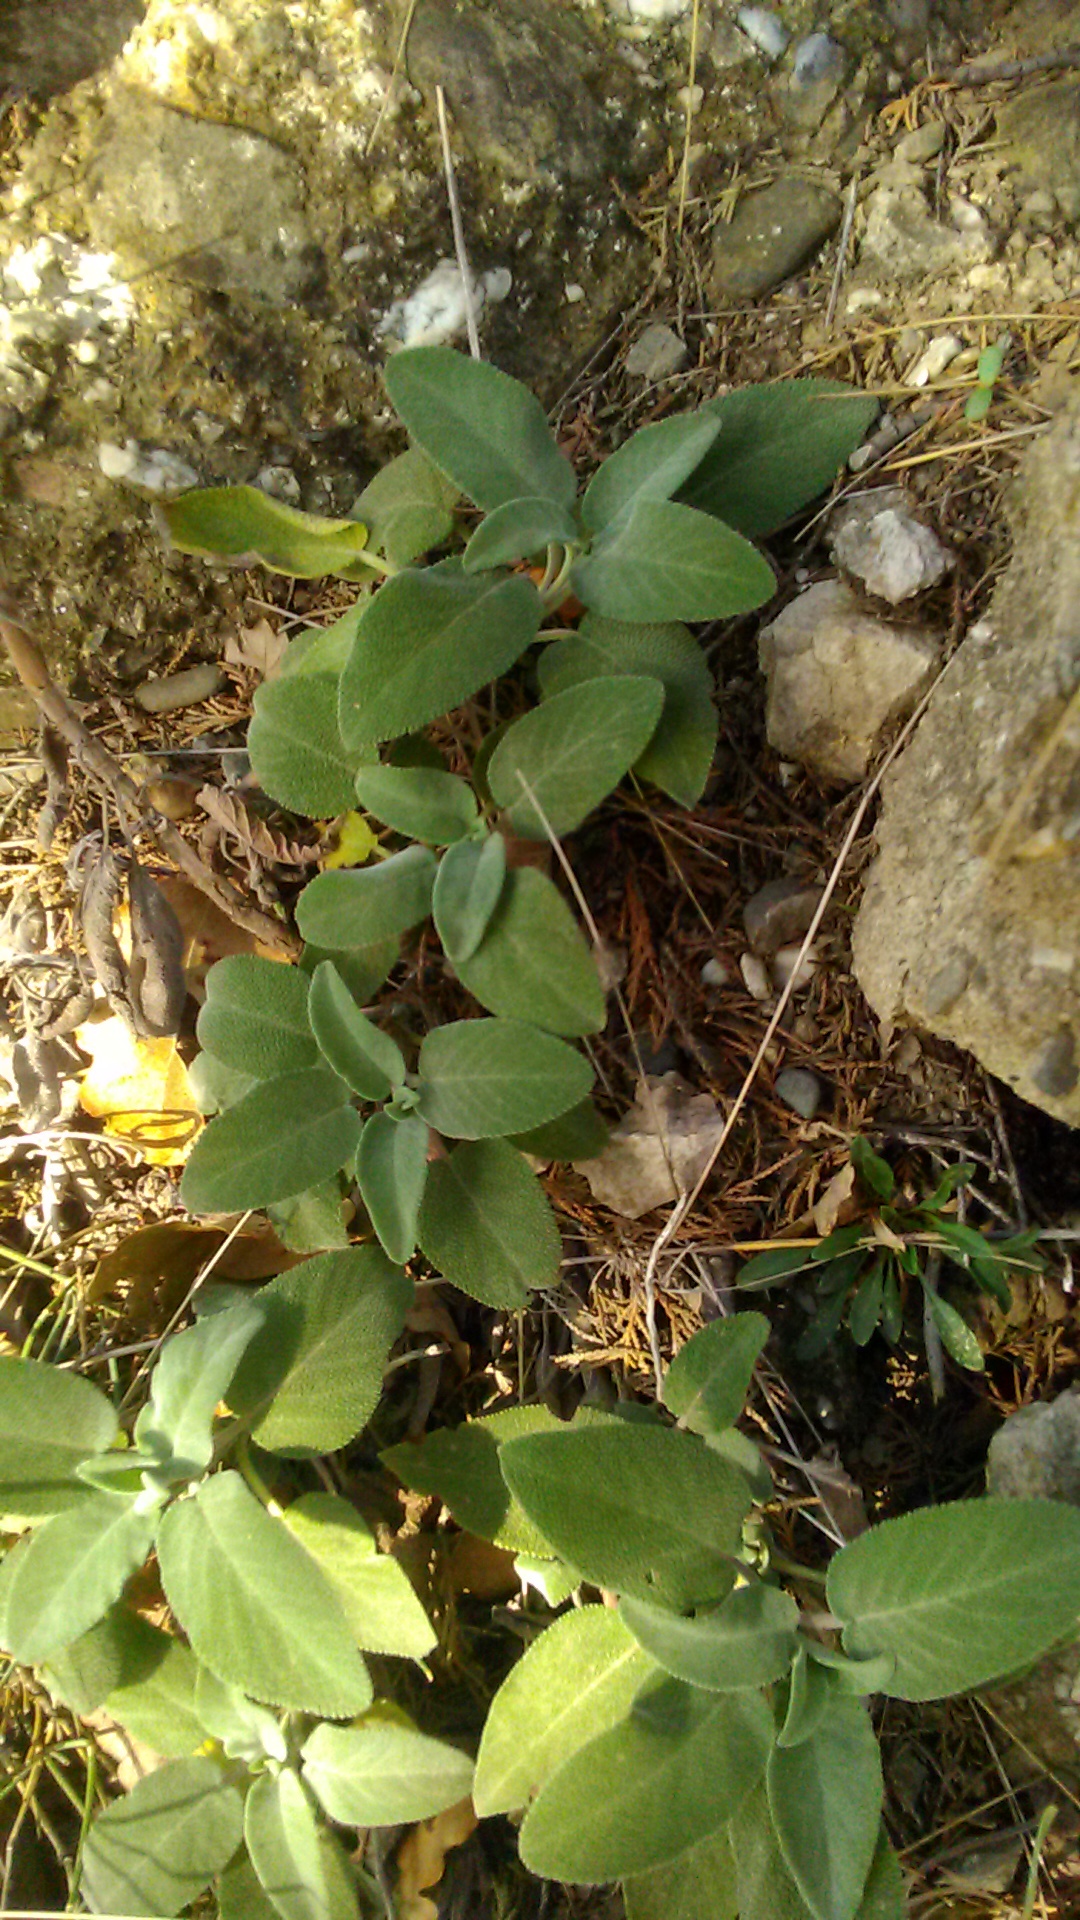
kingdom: Plantae
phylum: Tracheophyta
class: Magnoliopsida
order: Lamiales
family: Lamiaceae
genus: Salvia
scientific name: Salvia tomentosa
